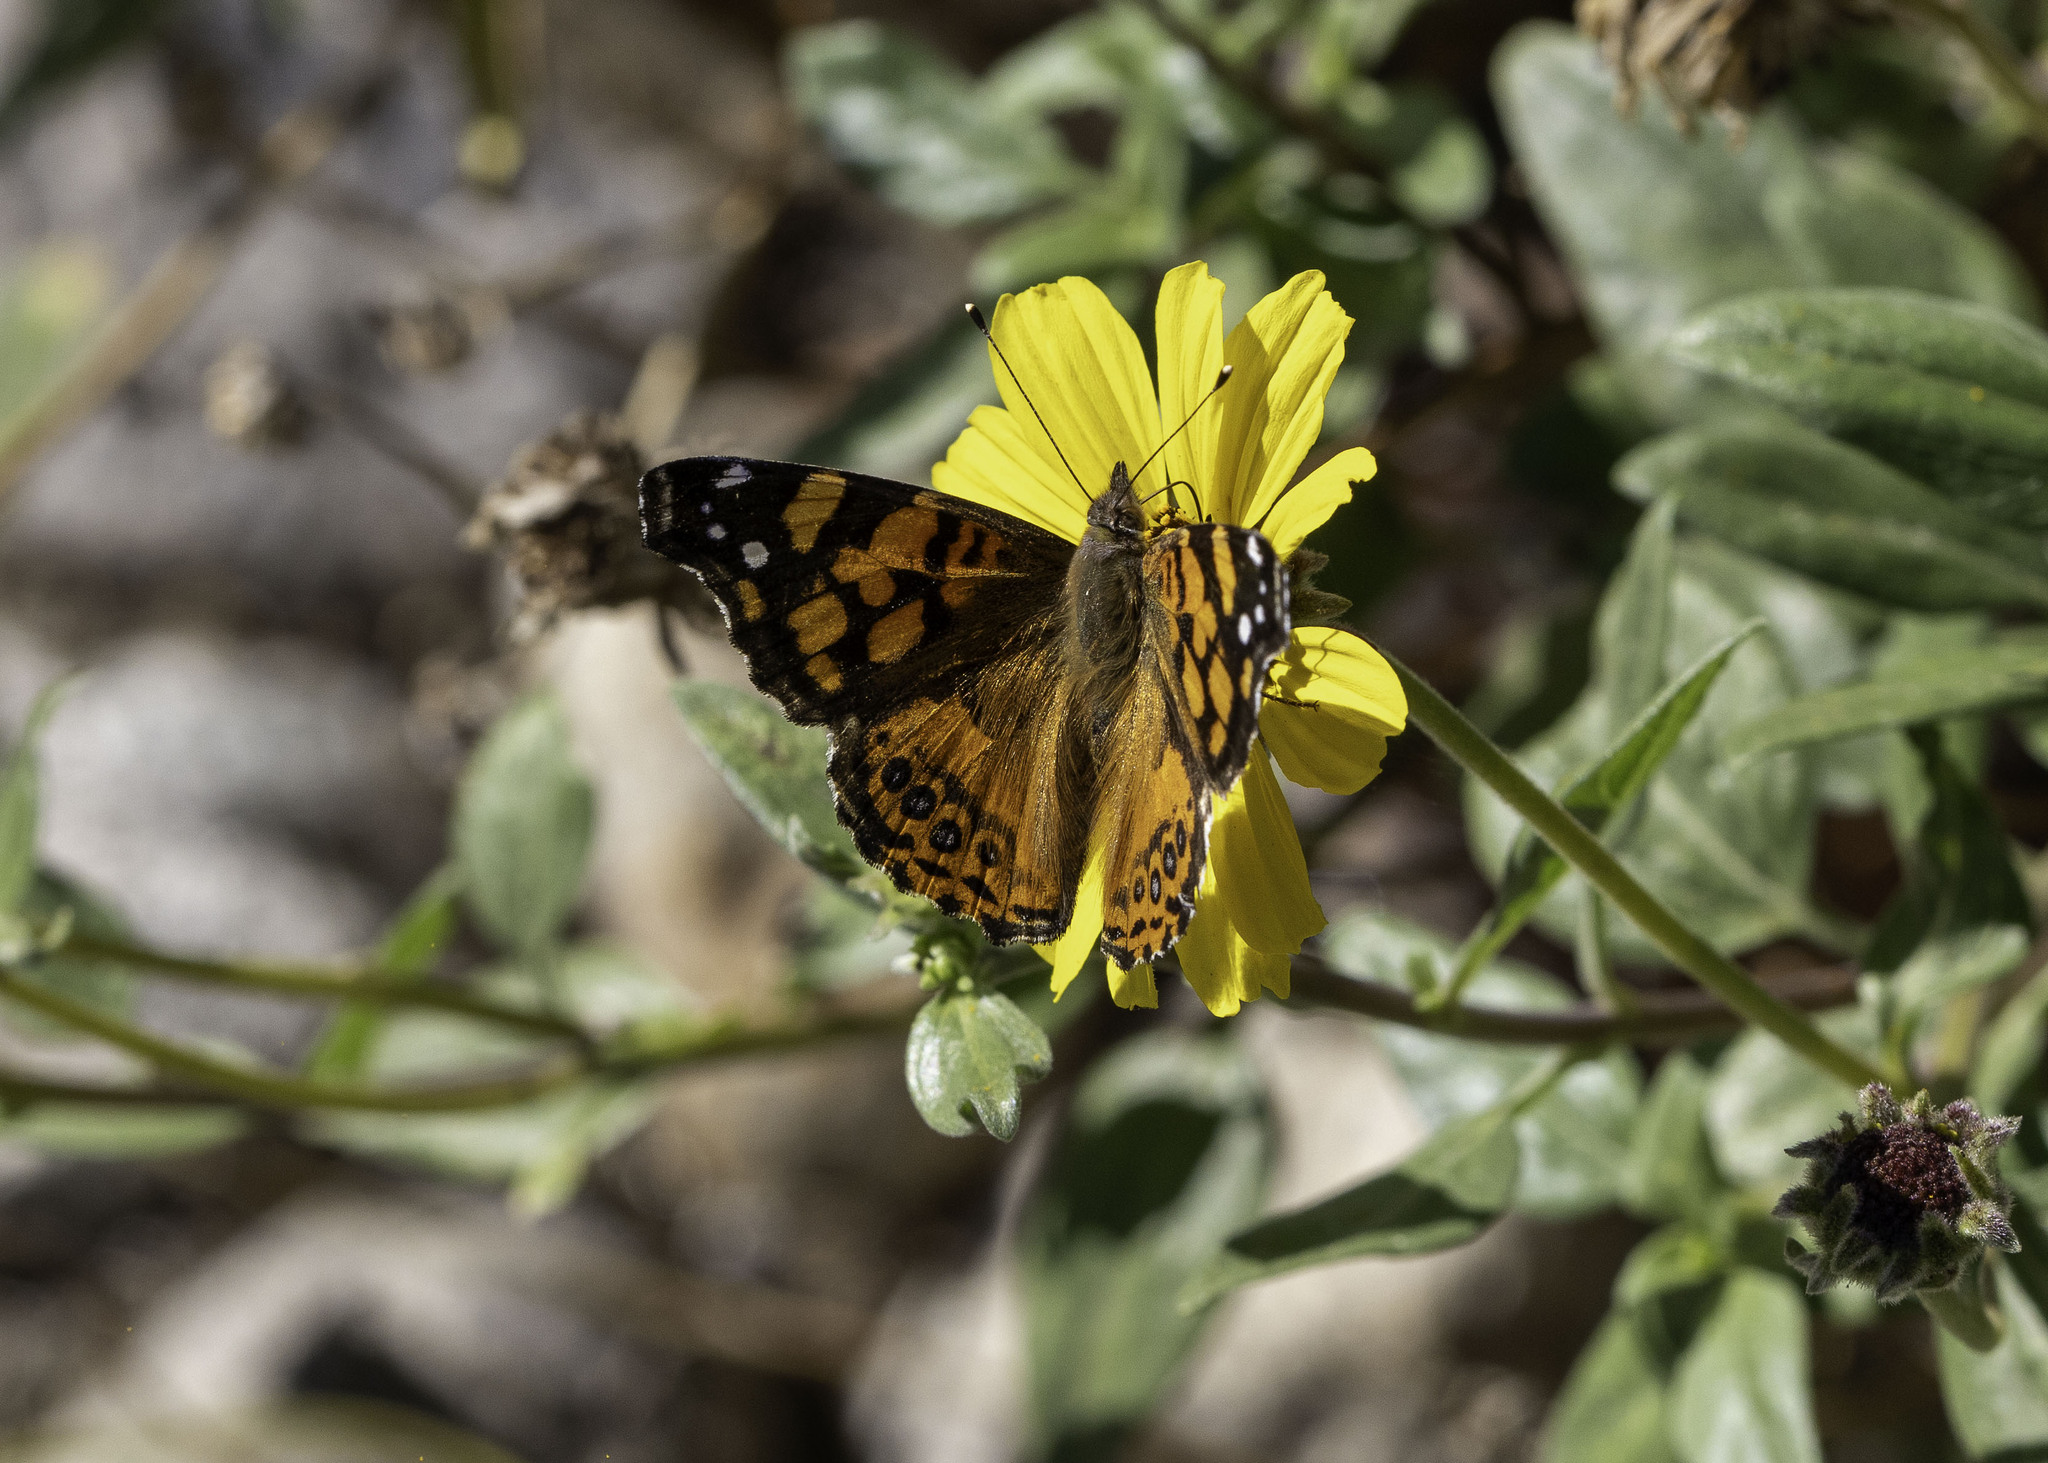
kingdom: Animalia
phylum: Arthropoda
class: Insecta
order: Lepidoptera
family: Nymphalidae
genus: Vanessa
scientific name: Vanessa annabella
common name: West coast lady
